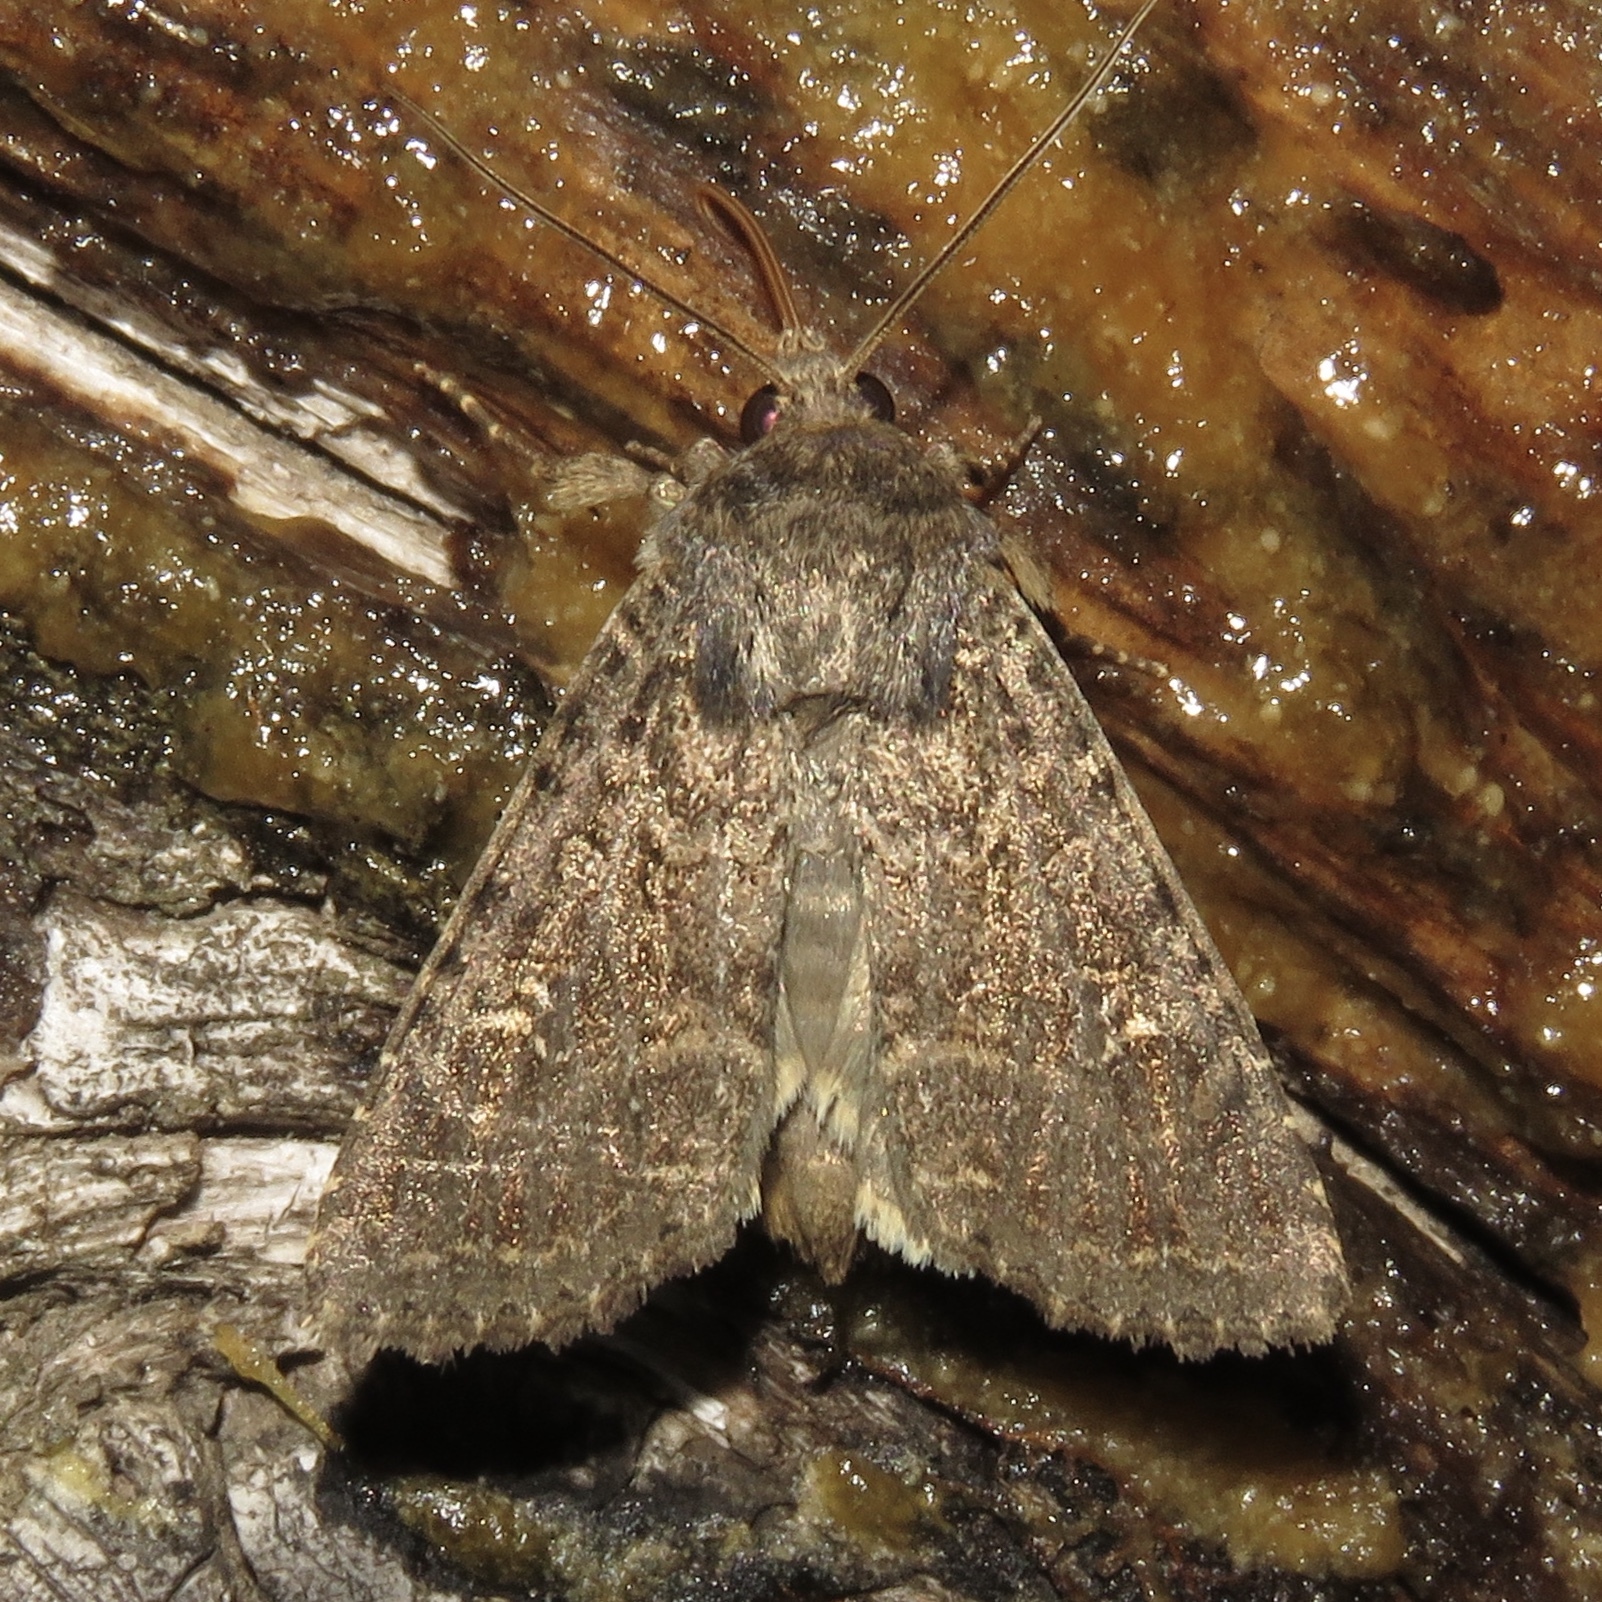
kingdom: Animalia
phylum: Arthropoda
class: Insecta
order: Lepidoptera
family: Noctuidae
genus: Apamea
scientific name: Apamea devastator
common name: Glassy cutworm
